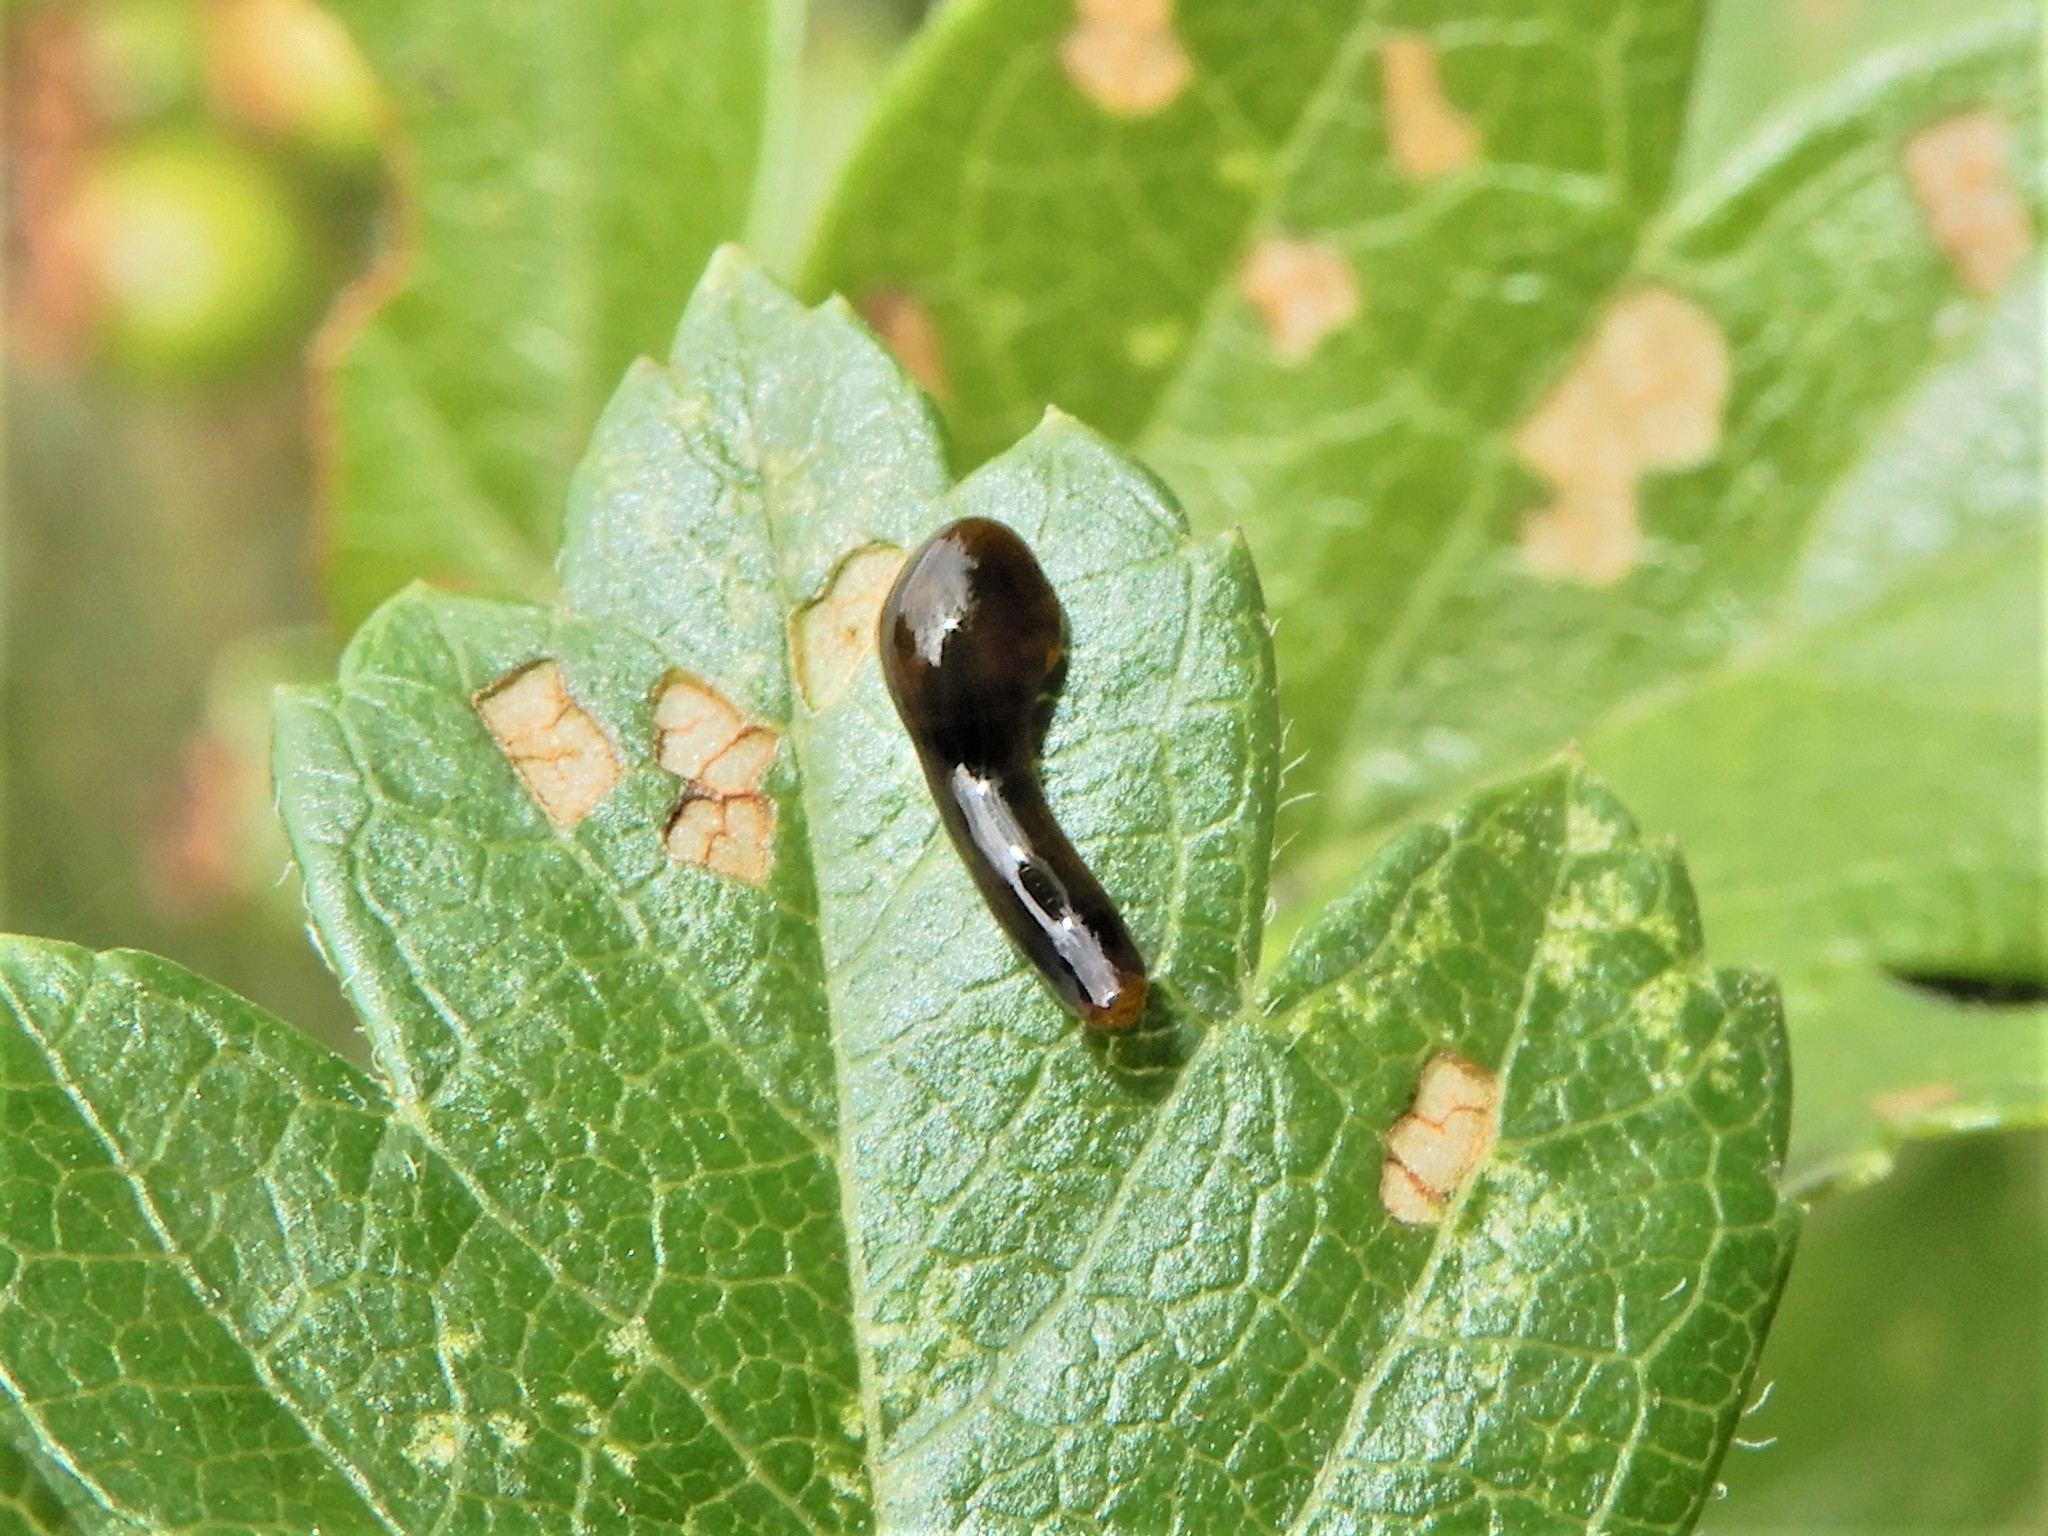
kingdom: Animalia
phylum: Arthropoda
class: Insecta
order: Hymenoptera
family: Tenthredinidae
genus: Caliroa
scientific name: Caliroa cerasi
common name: Pear sawfly
